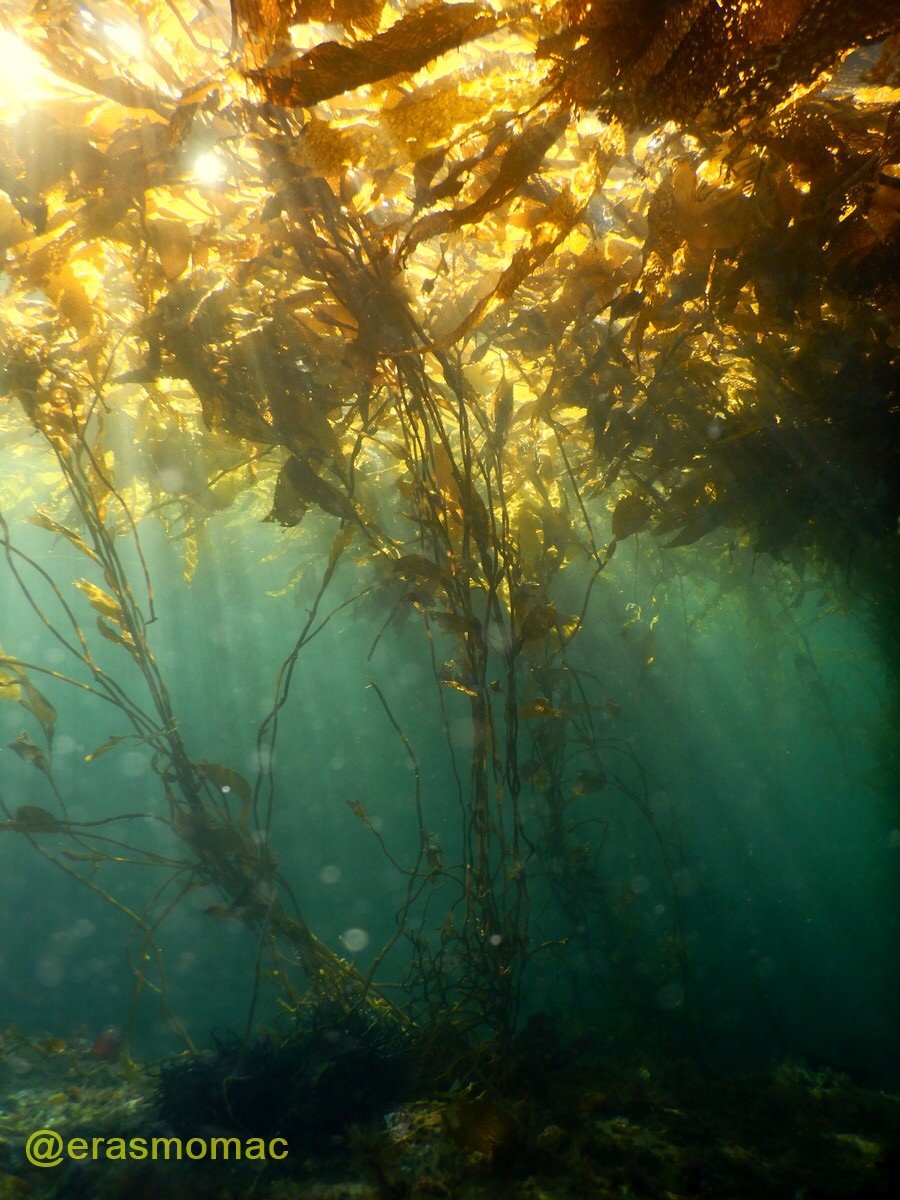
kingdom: Chromista
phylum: Ochrophyta
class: Phaeophyceae
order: Laminariales
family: Laminariaceae
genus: Macrocystis
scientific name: Macrocystis pyrifera
